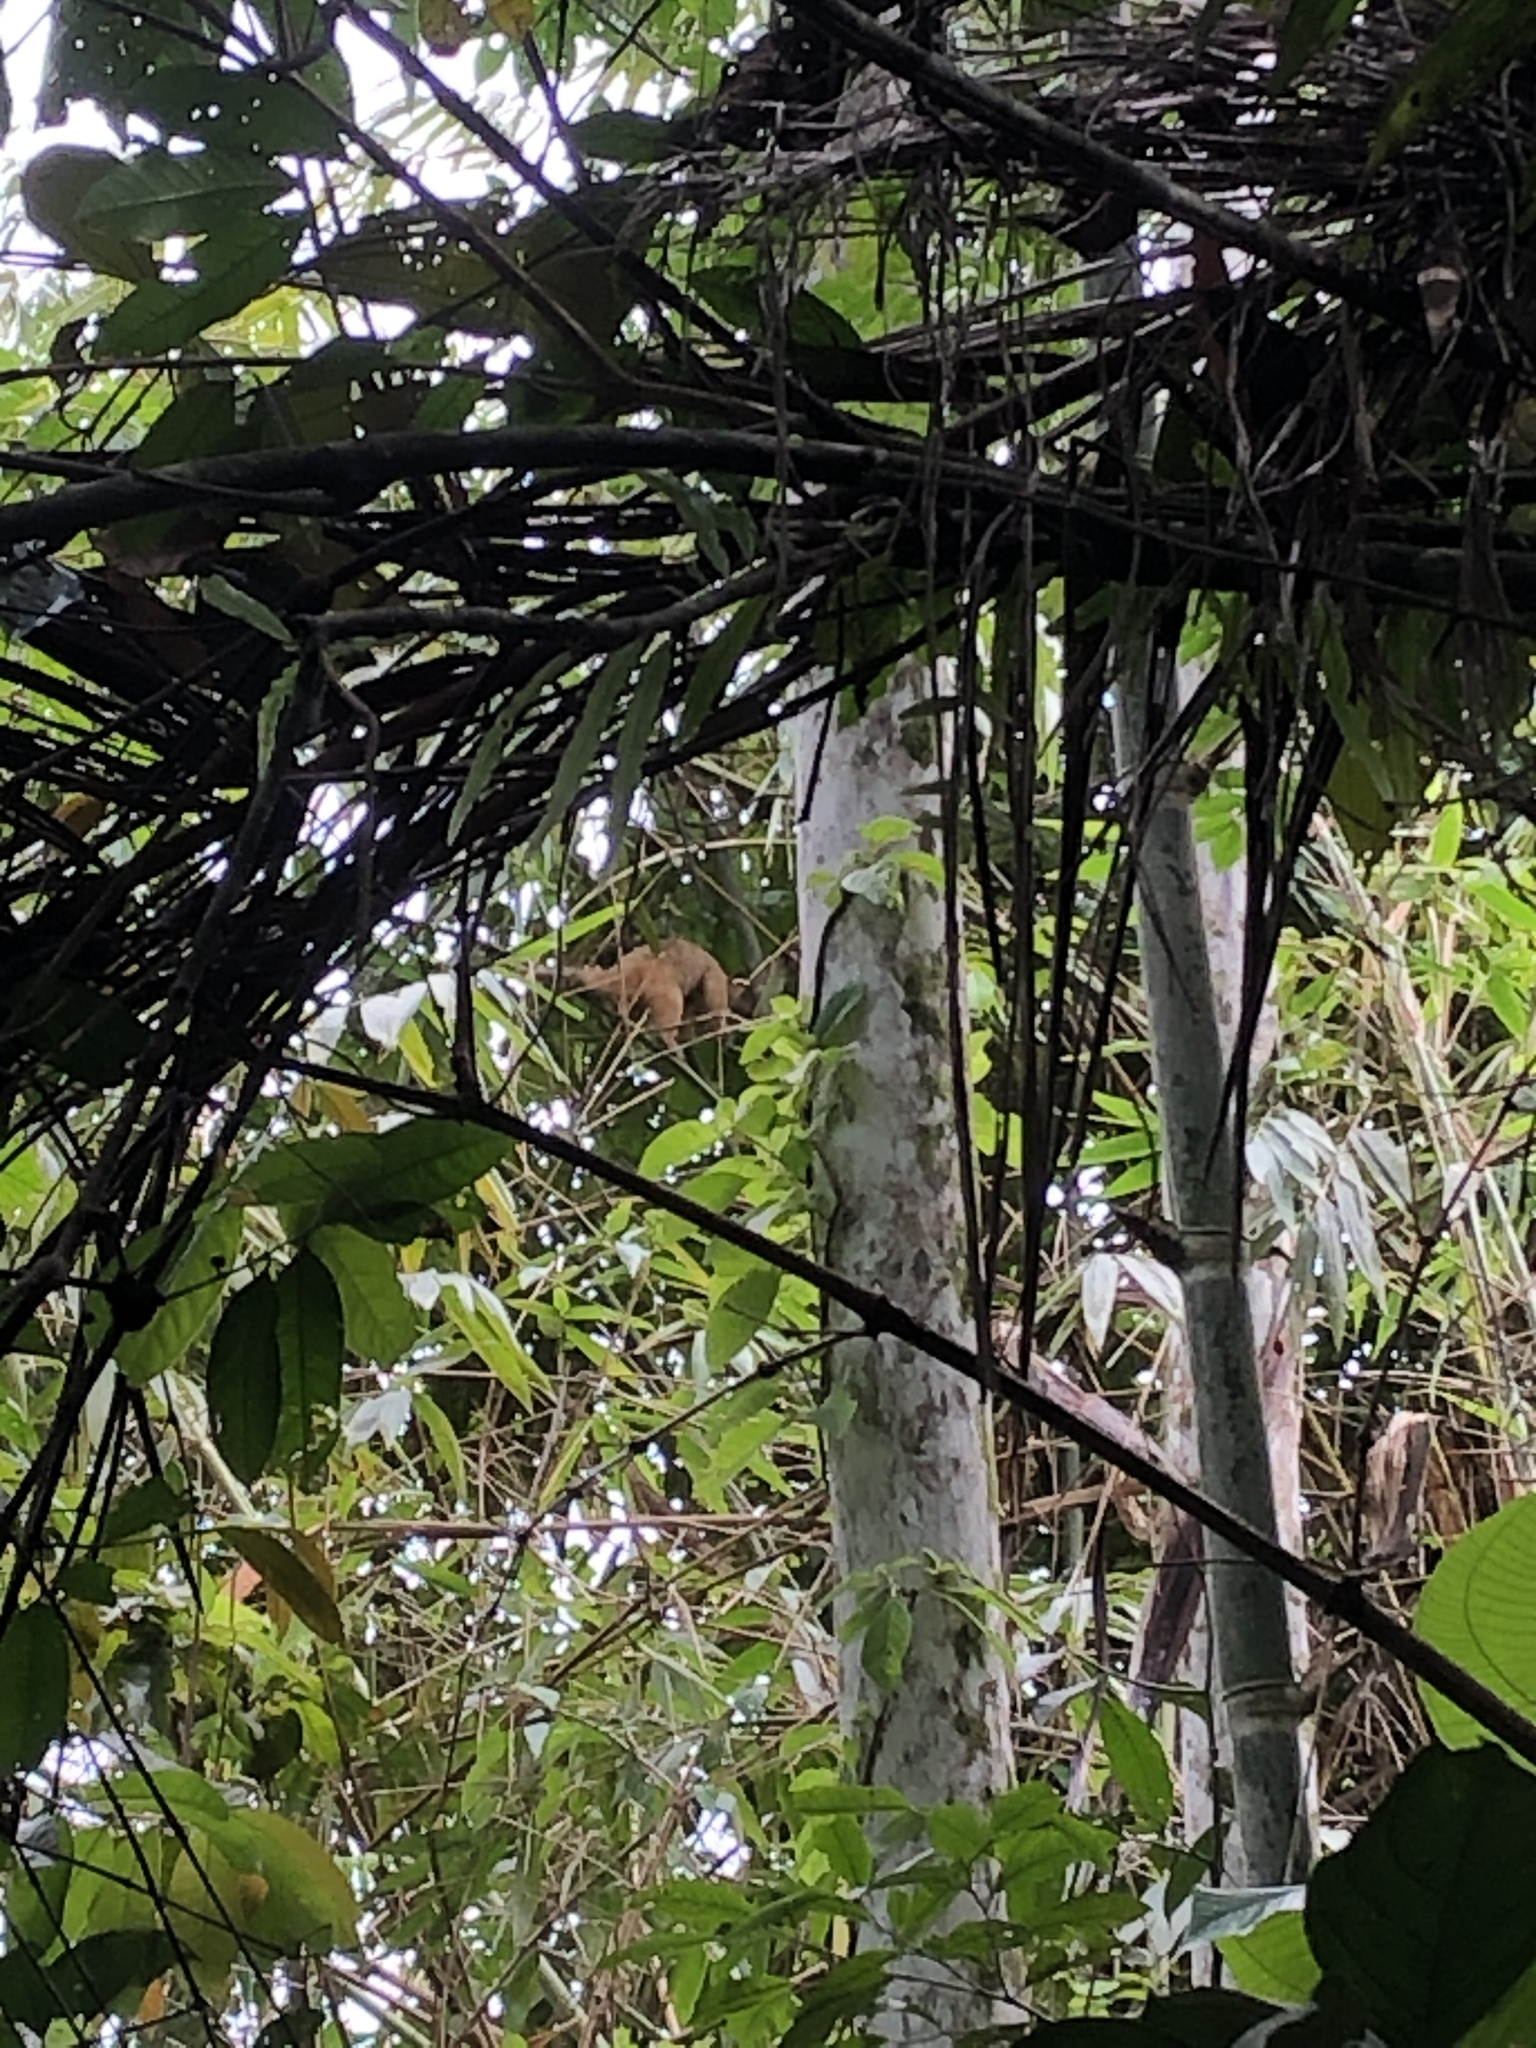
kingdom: Animalia
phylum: Chordata
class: Mammalia
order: Pilosa
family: Myrmecophagidae
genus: Tamandua
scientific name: Tamandua tetradactyla
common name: Southern tamandua
